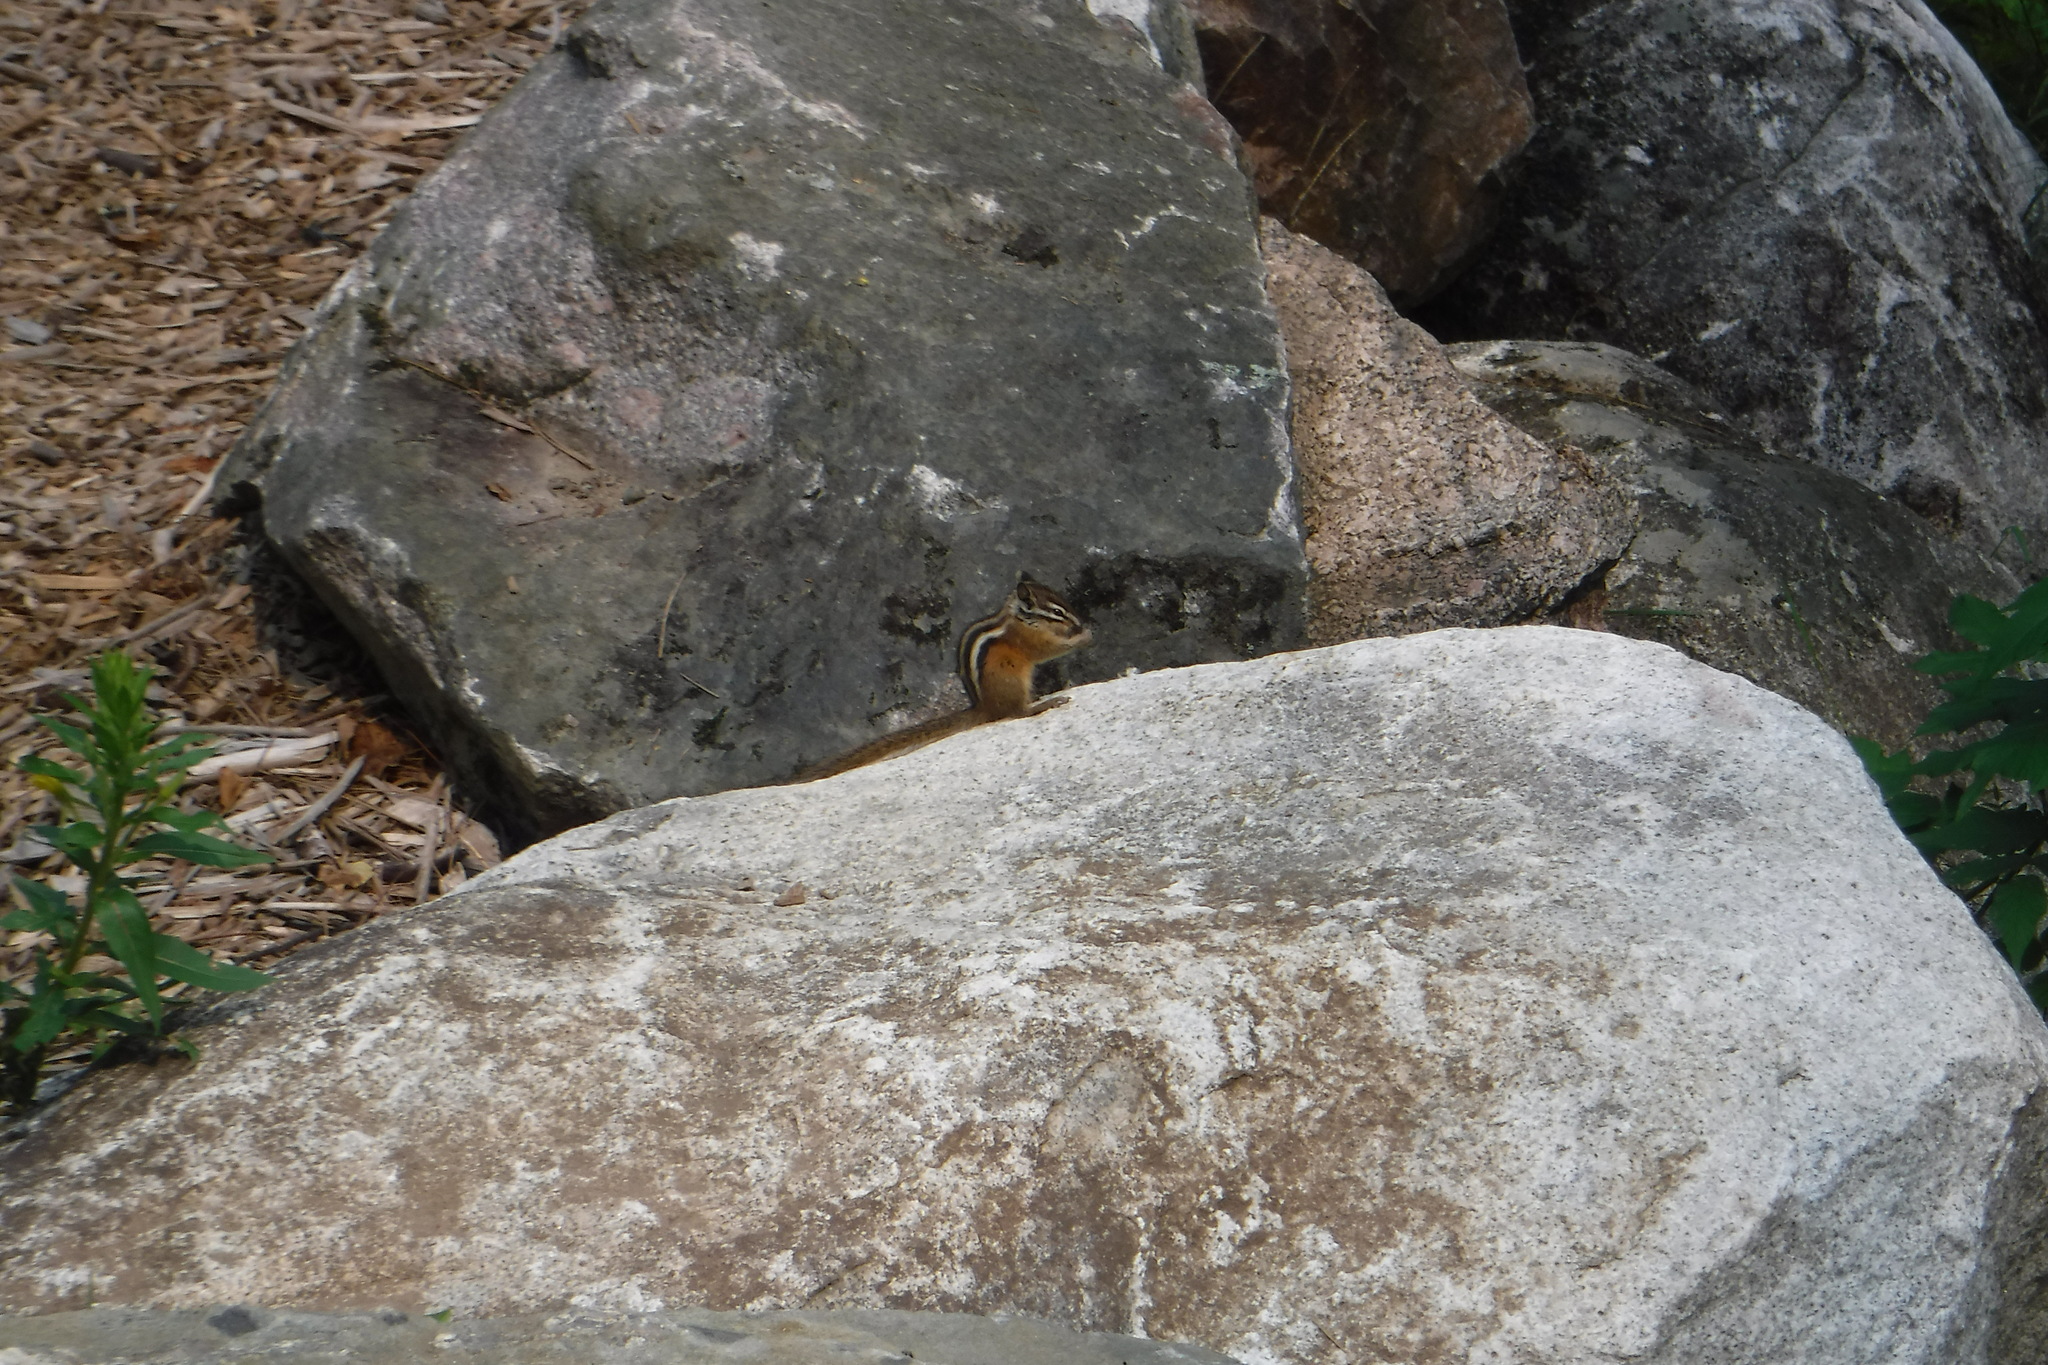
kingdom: Animalia
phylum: Chordata
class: Mammalia
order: Rodentia
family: Sciuridae
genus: Tamias
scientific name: Tamias minimus
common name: Least chipmunk
